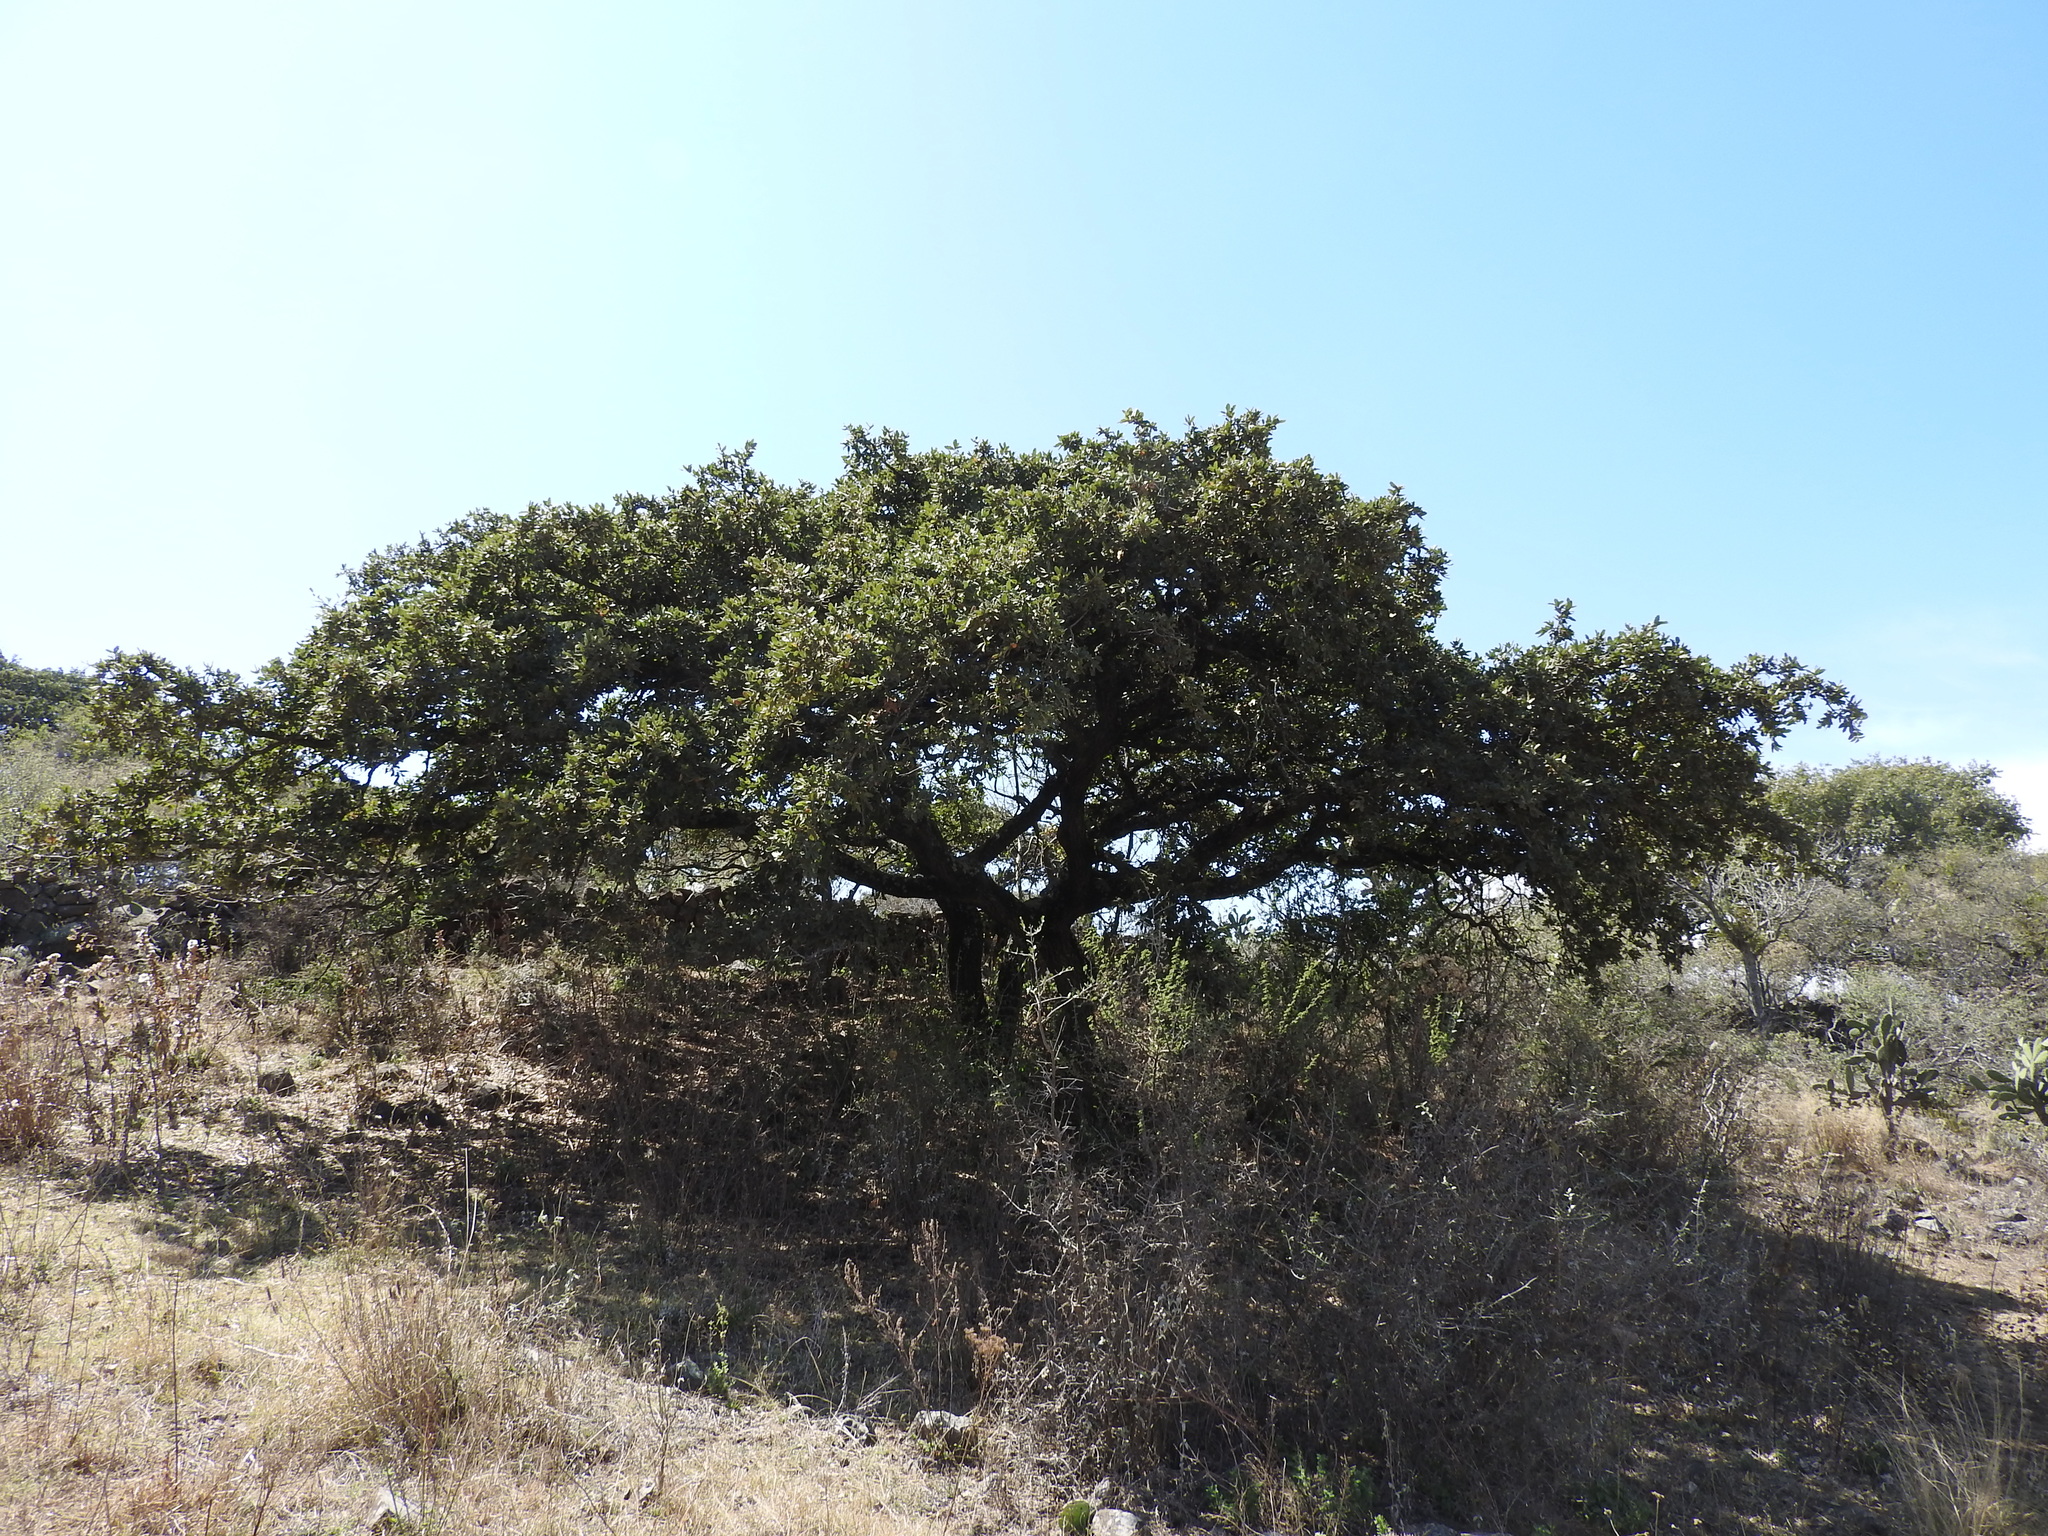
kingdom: Plantae
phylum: Tracheophyta
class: Magnoliopsida
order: Fagales
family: Fagaceae
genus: Quercus
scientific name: Quercus
